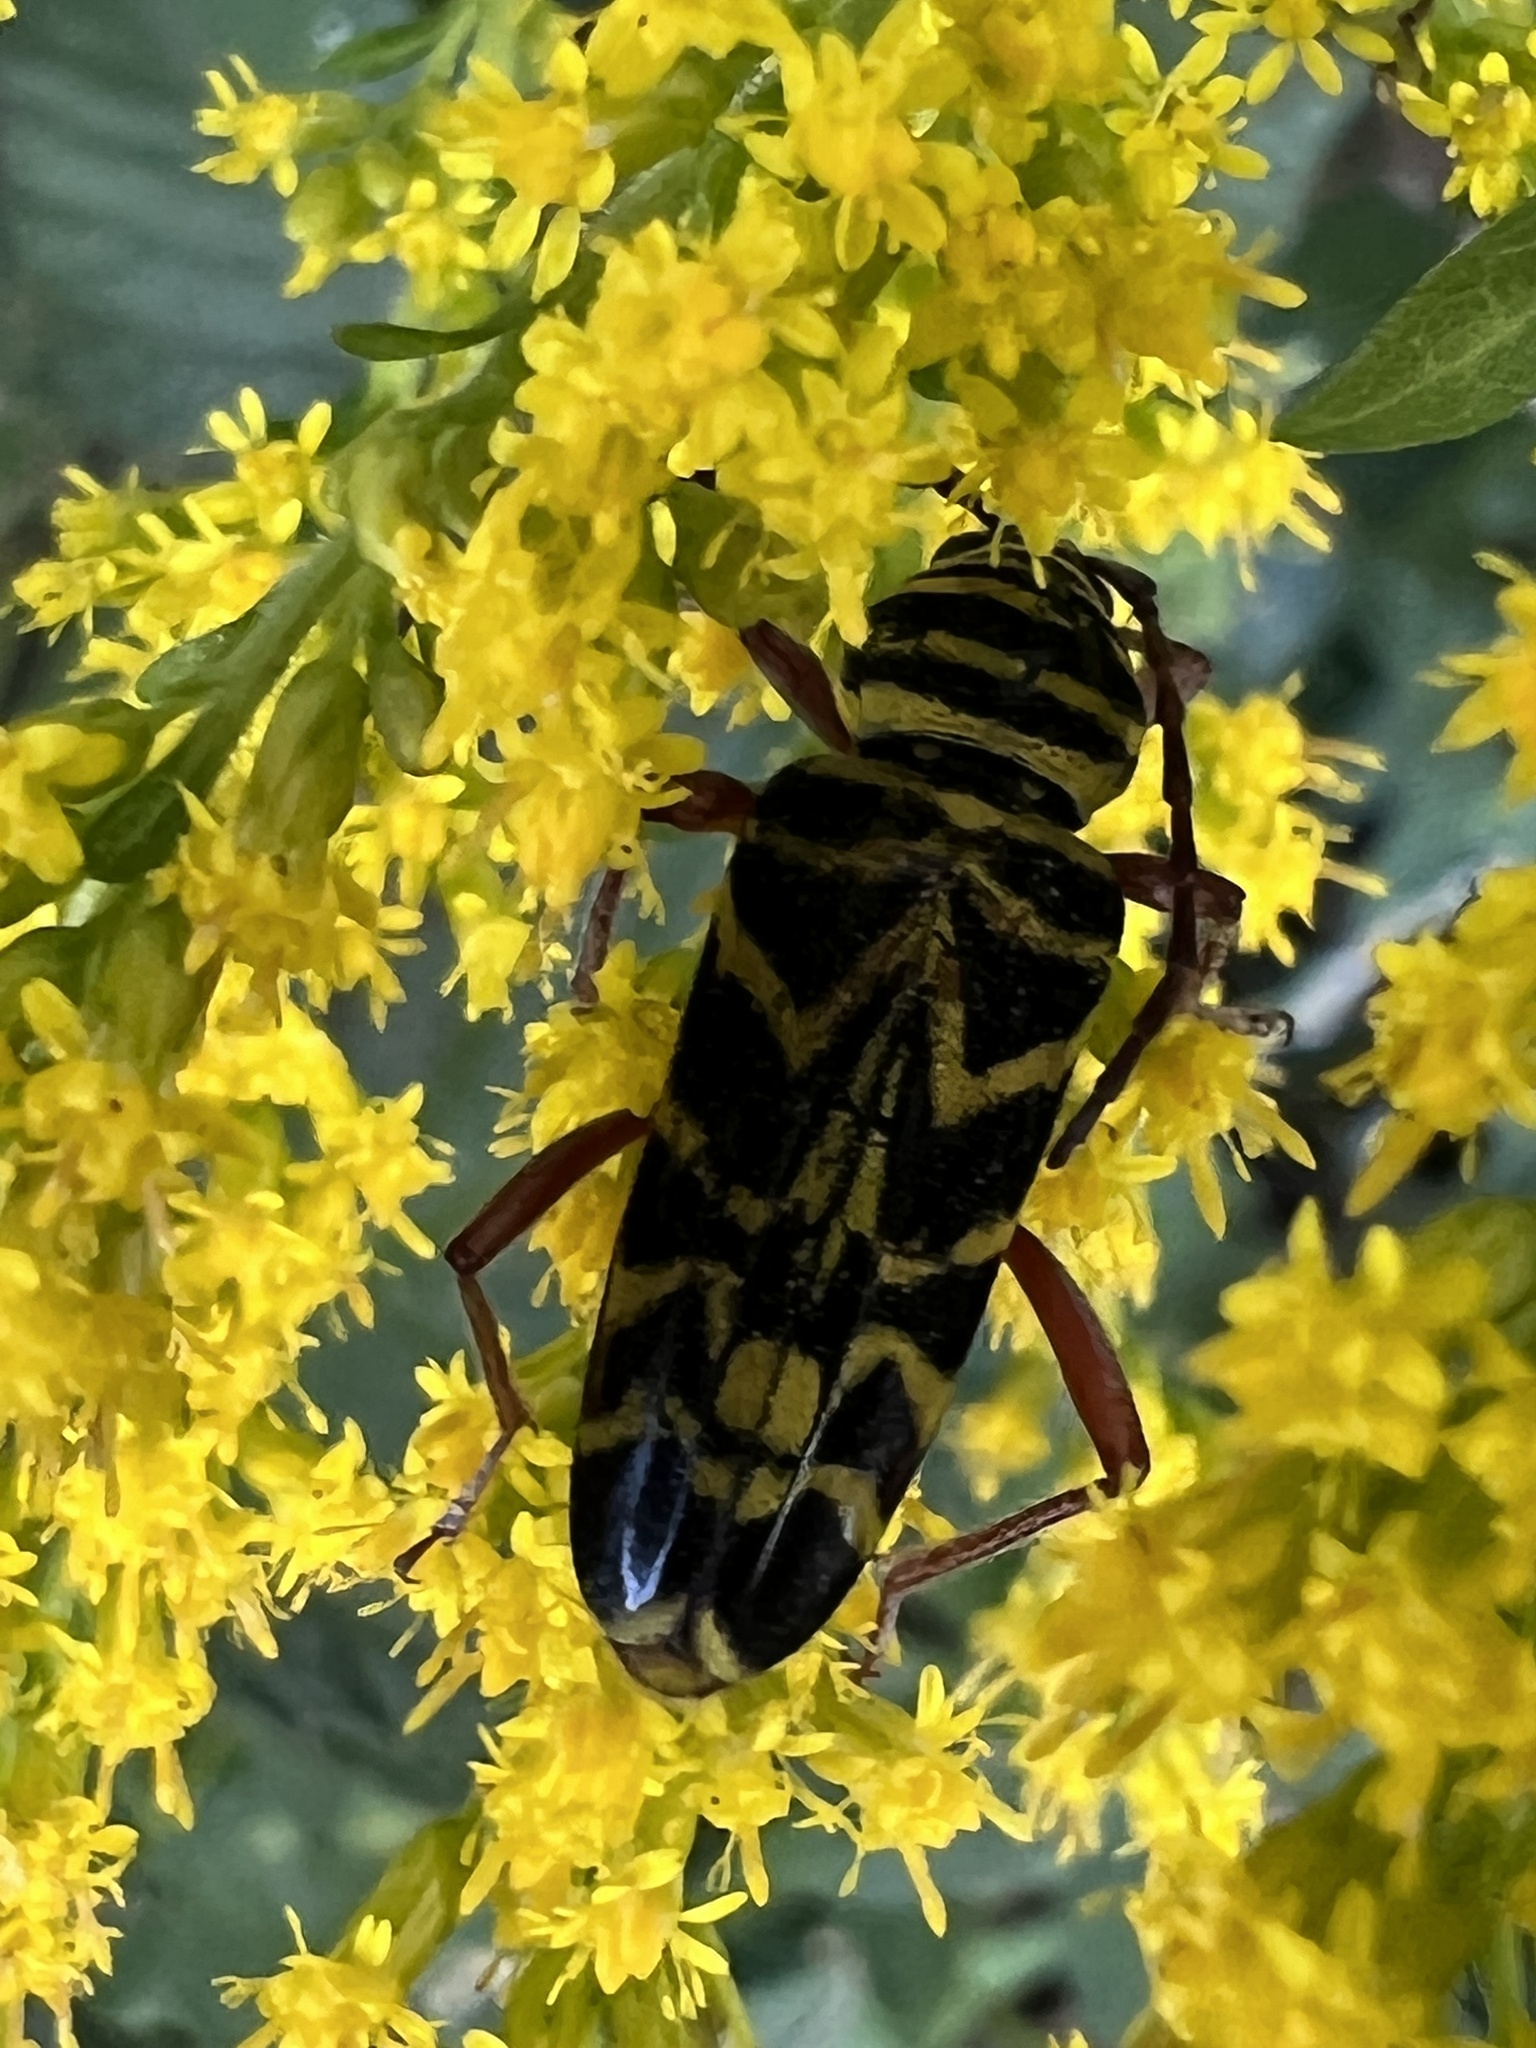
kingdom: Animalia
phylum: Arthropoda
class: Insecta
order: Coleoptera
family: Cerambycidae
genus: Megacyllene
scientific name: Megacyllene robiniae
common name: Locust borer
